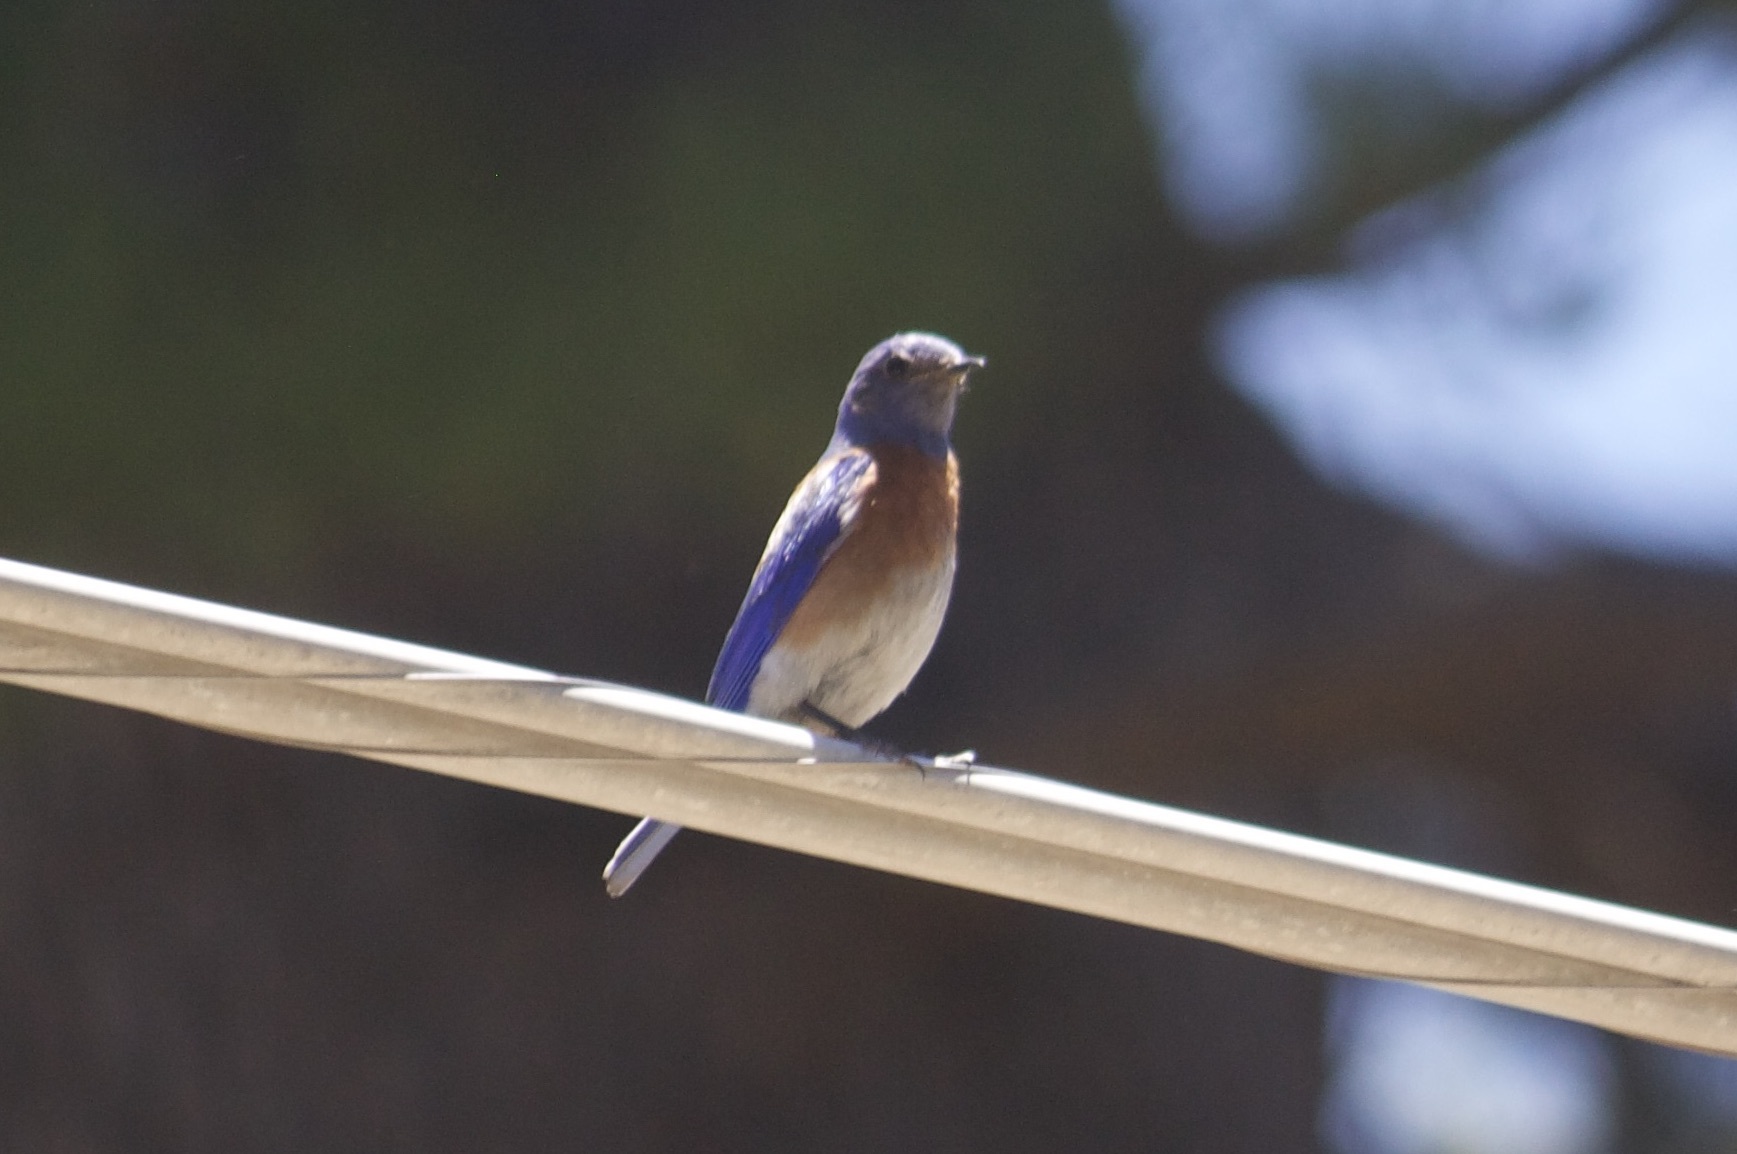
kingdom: Animalia
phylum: Chordata
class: Aves
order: Passeriformes
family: Turdidae
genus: Sialia
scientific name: Sialia mexicana
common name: Western bluebird
